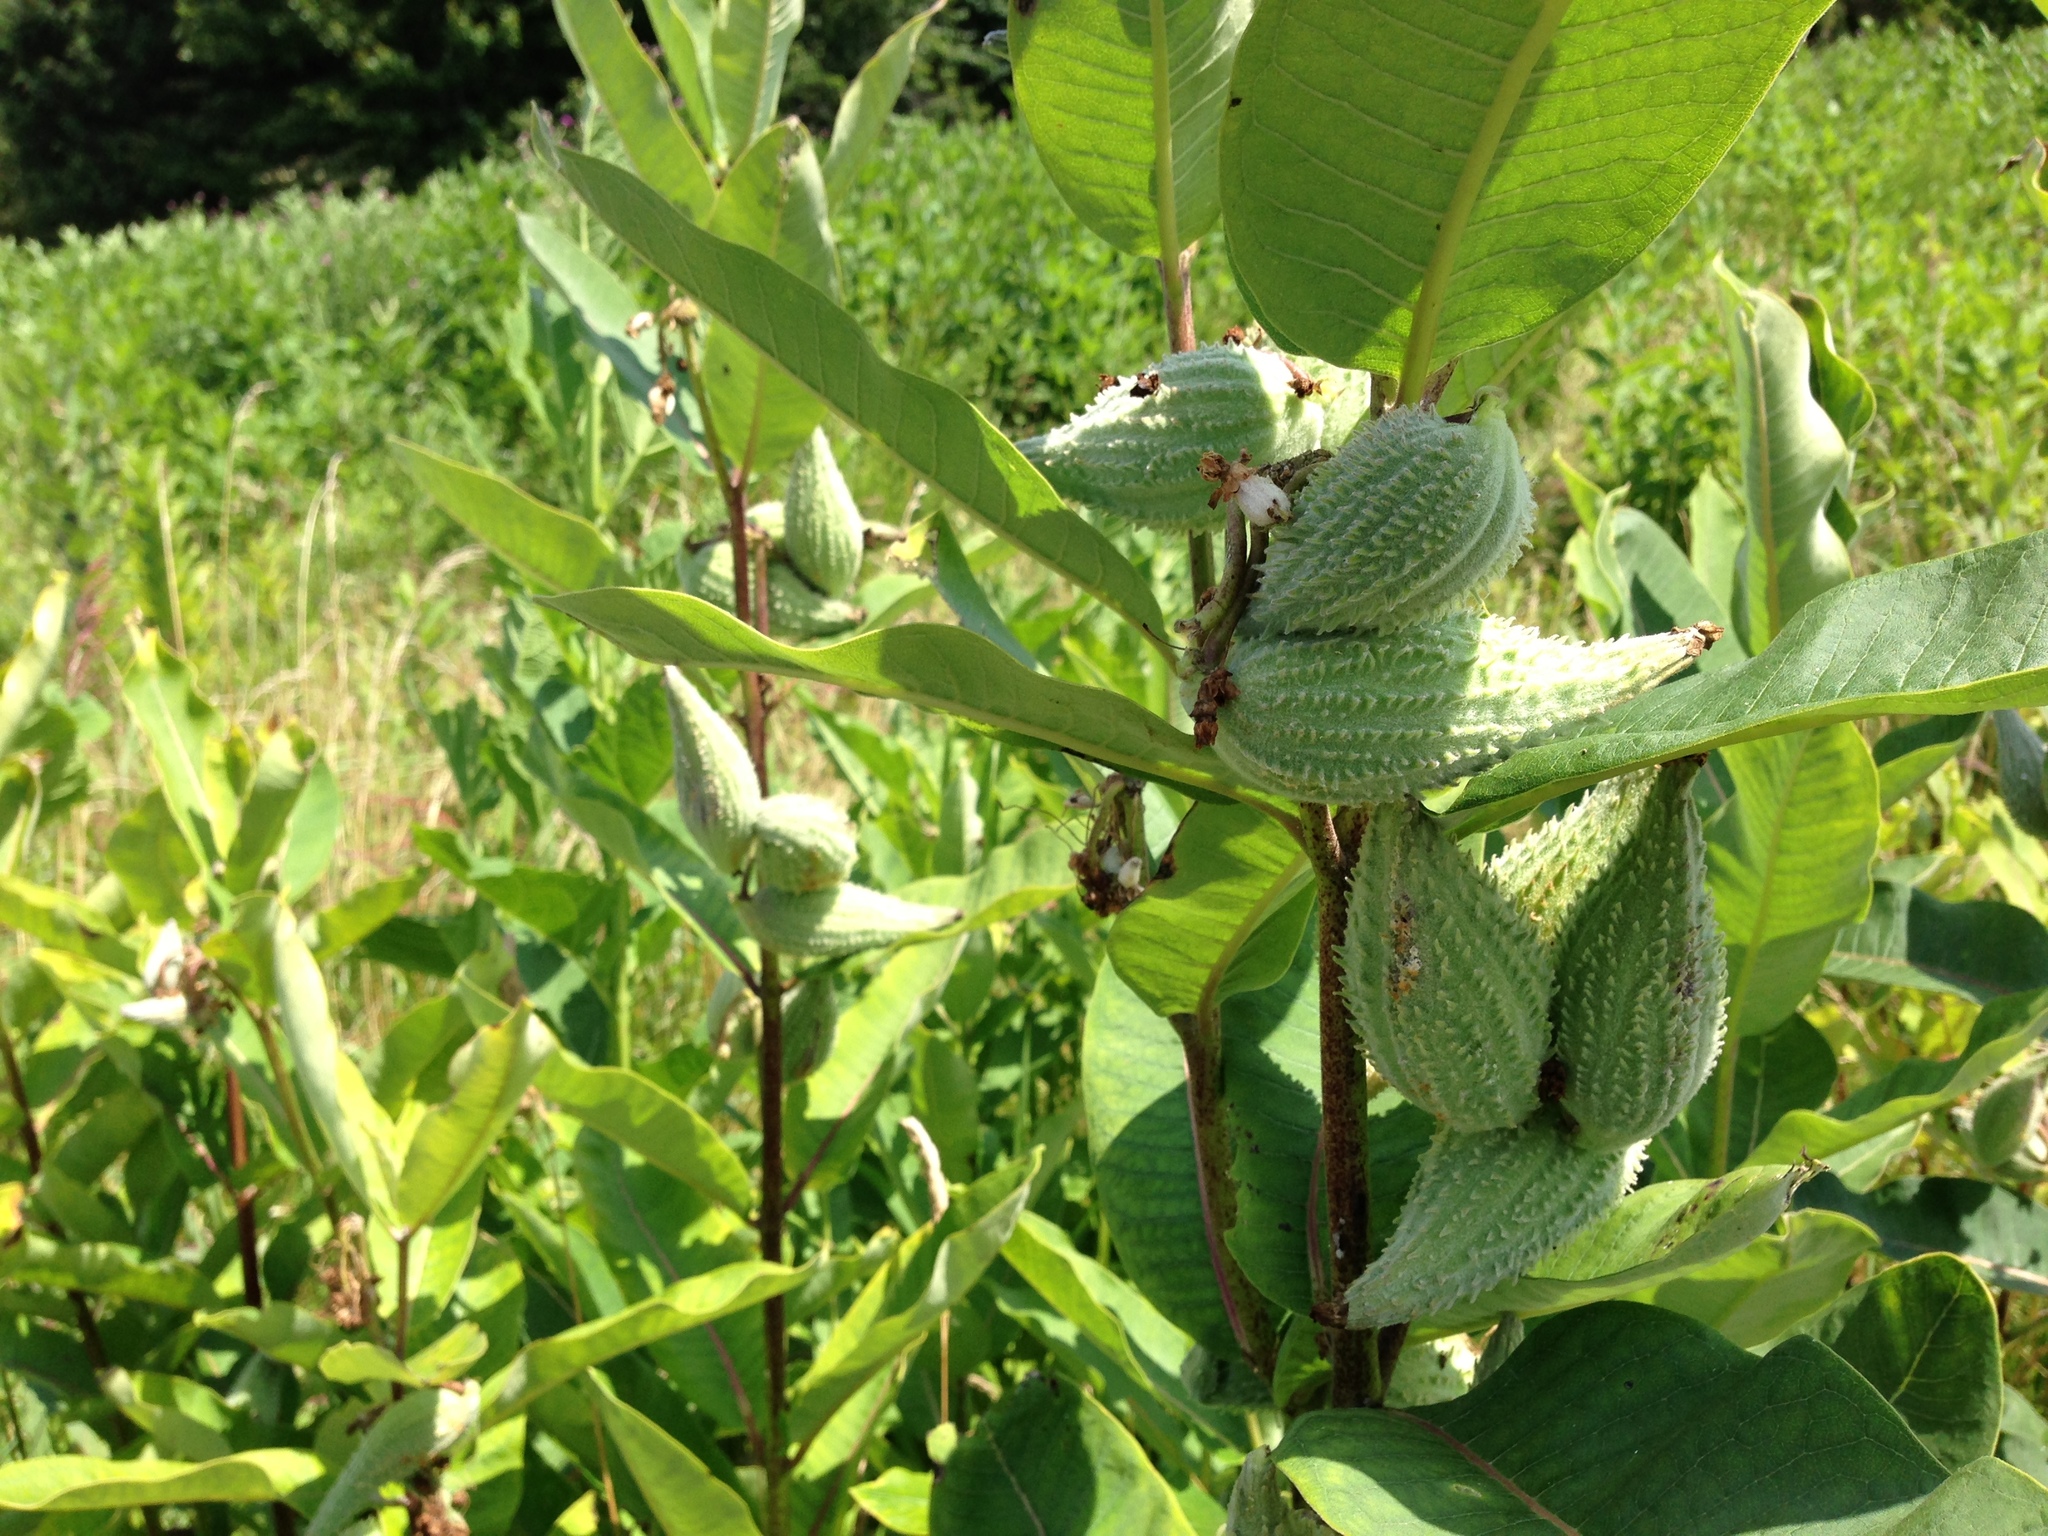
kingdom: Plantae
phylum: Tracheophyta
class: Magnoliopsida
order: Gentianales
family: Apocynaceae
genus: Asclepias
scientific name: Asclepias syriaca
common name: Common milkweed
